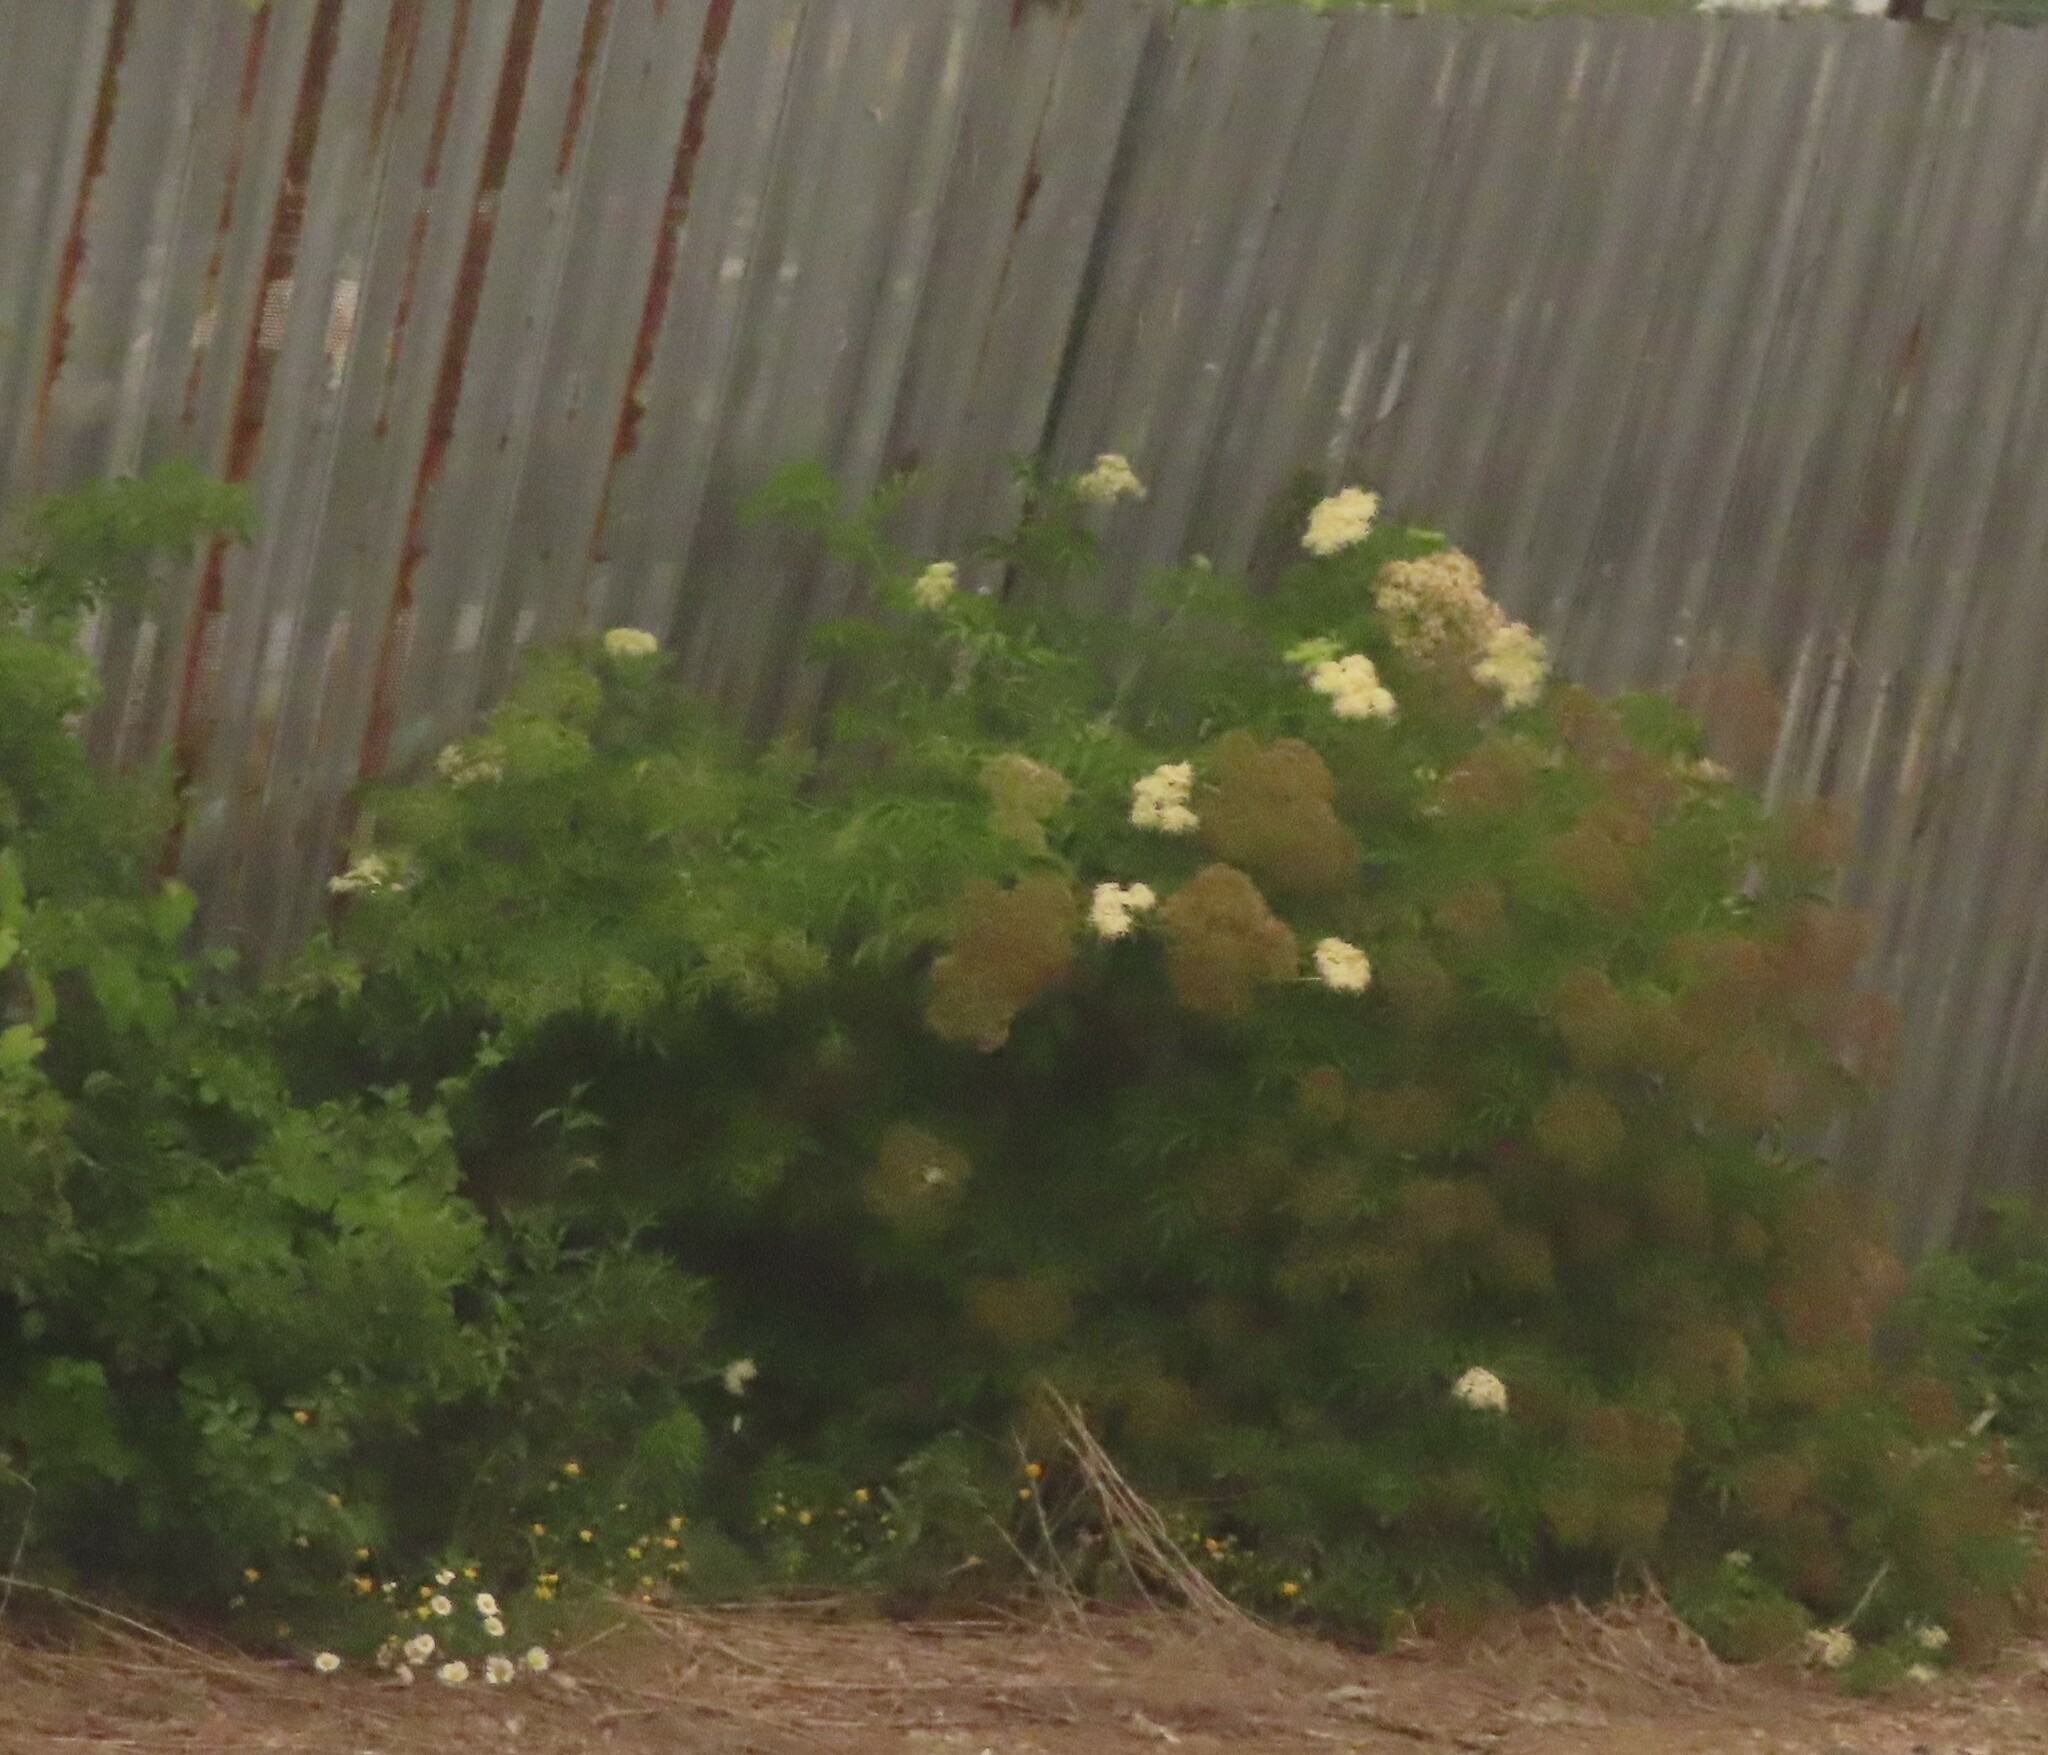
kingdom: Plantae
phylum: Tracheophyta
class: Magnoliopsida
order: Dipsacales
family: Viburnaceae
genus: Sambucus
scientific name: Sambucus canadensis
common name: American elder
